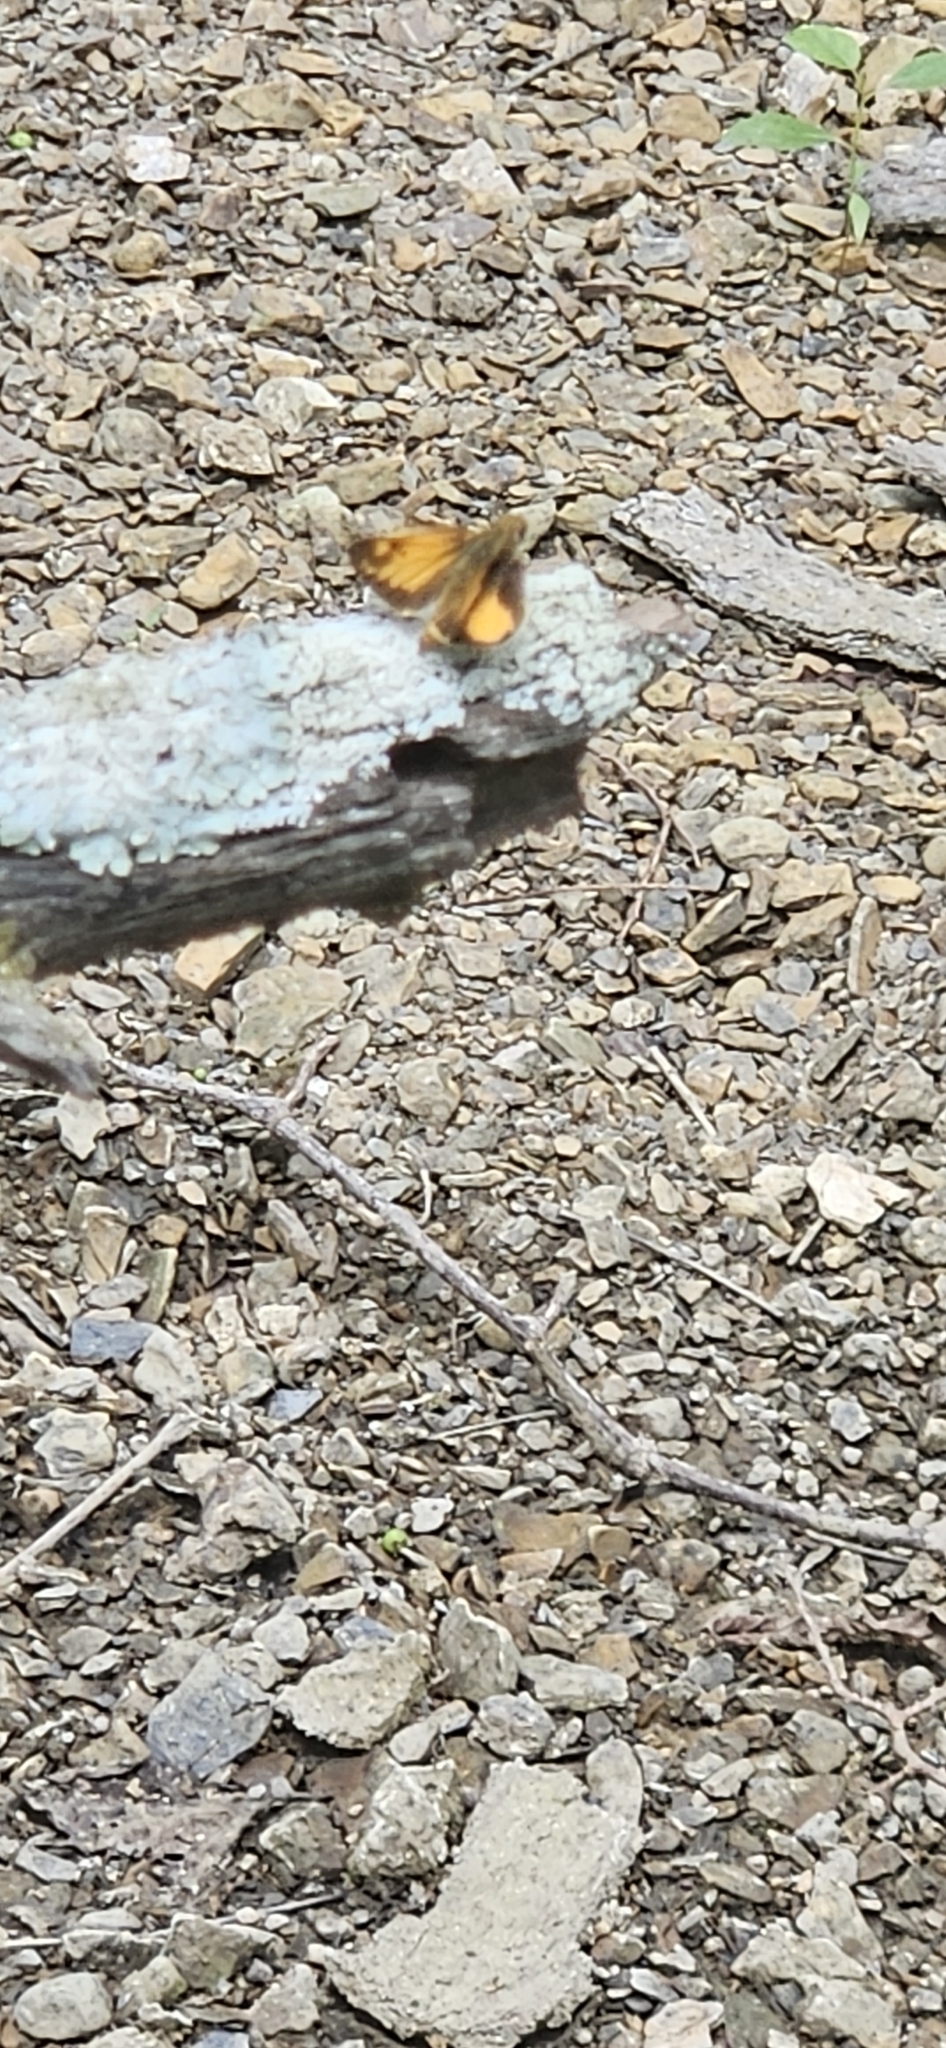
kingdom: Animalia
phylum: Arthropoda
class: Insecta
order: Lepidoptera
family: Hesperiidae
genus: Lon
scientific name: Lon zabulon
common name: Zabulon skipper
